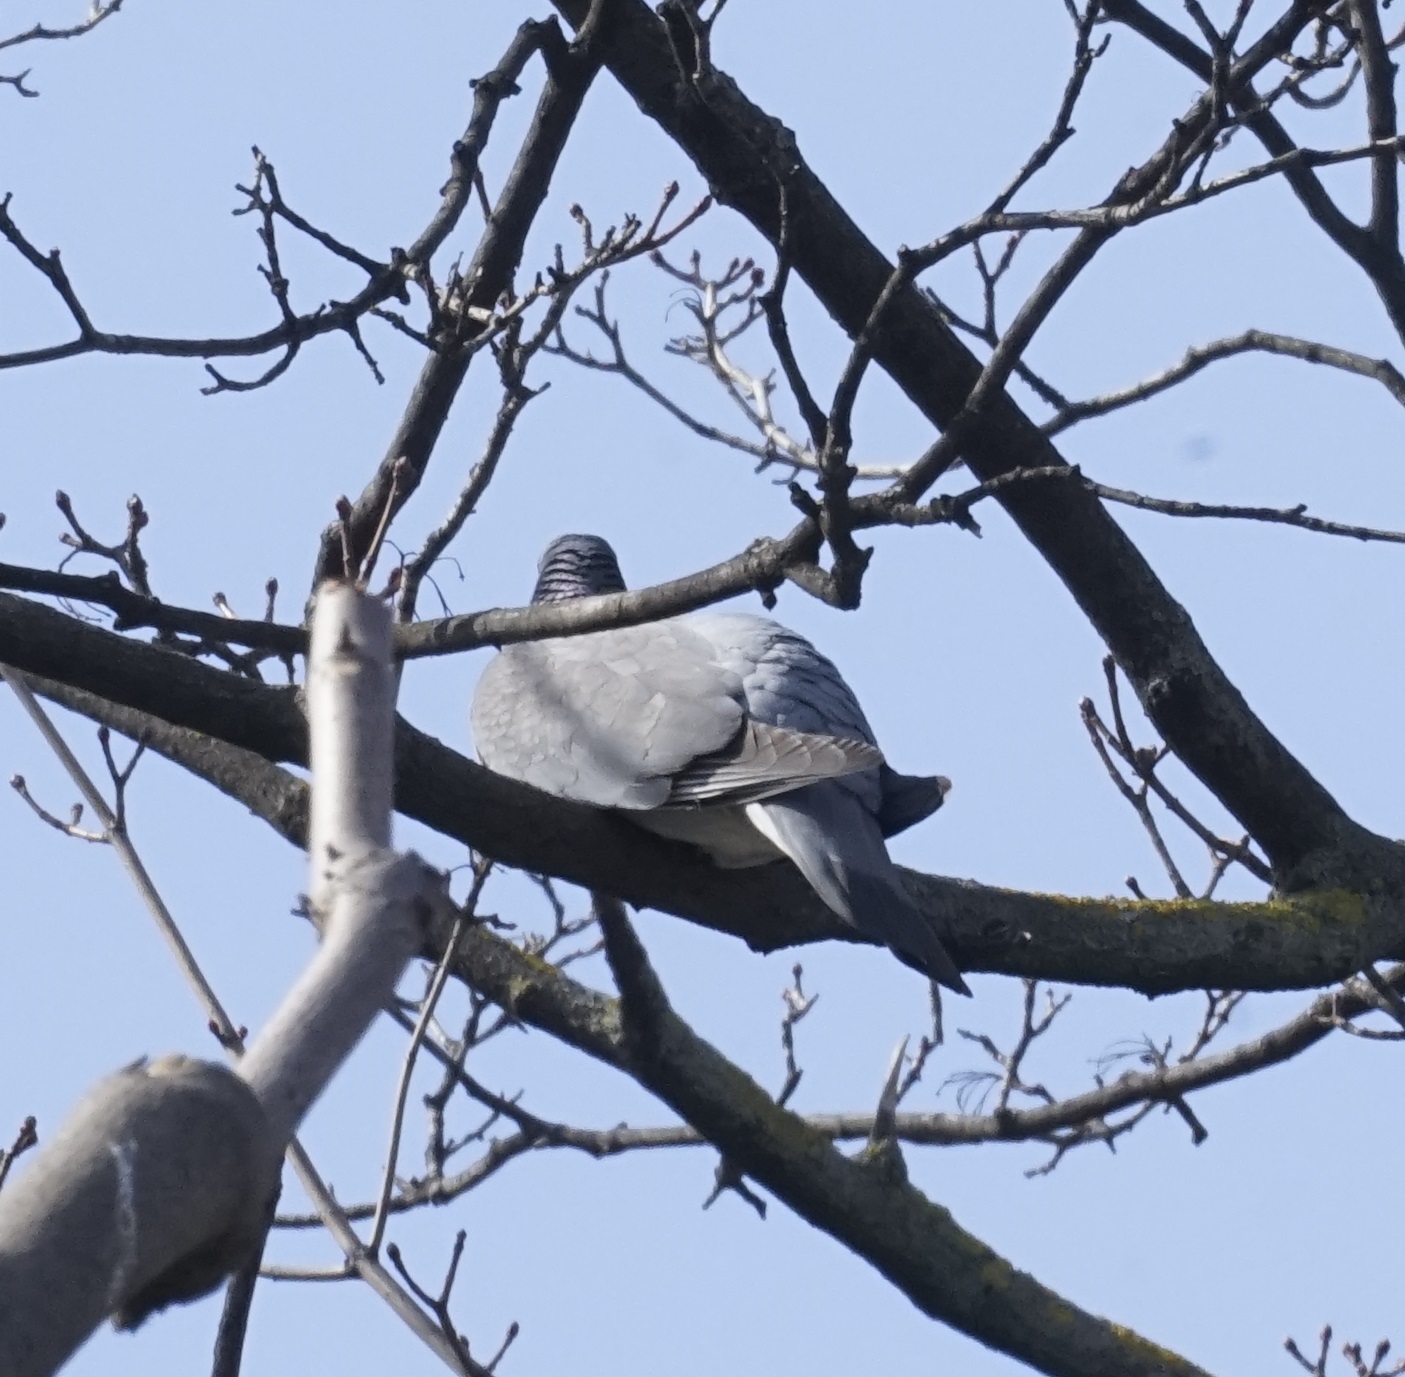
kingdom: Animalia
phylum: Chordata
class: Aves
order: Columbiformes
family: Columbidae
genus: Columba
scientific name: Columba palumbus
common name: Common wood pigeon
